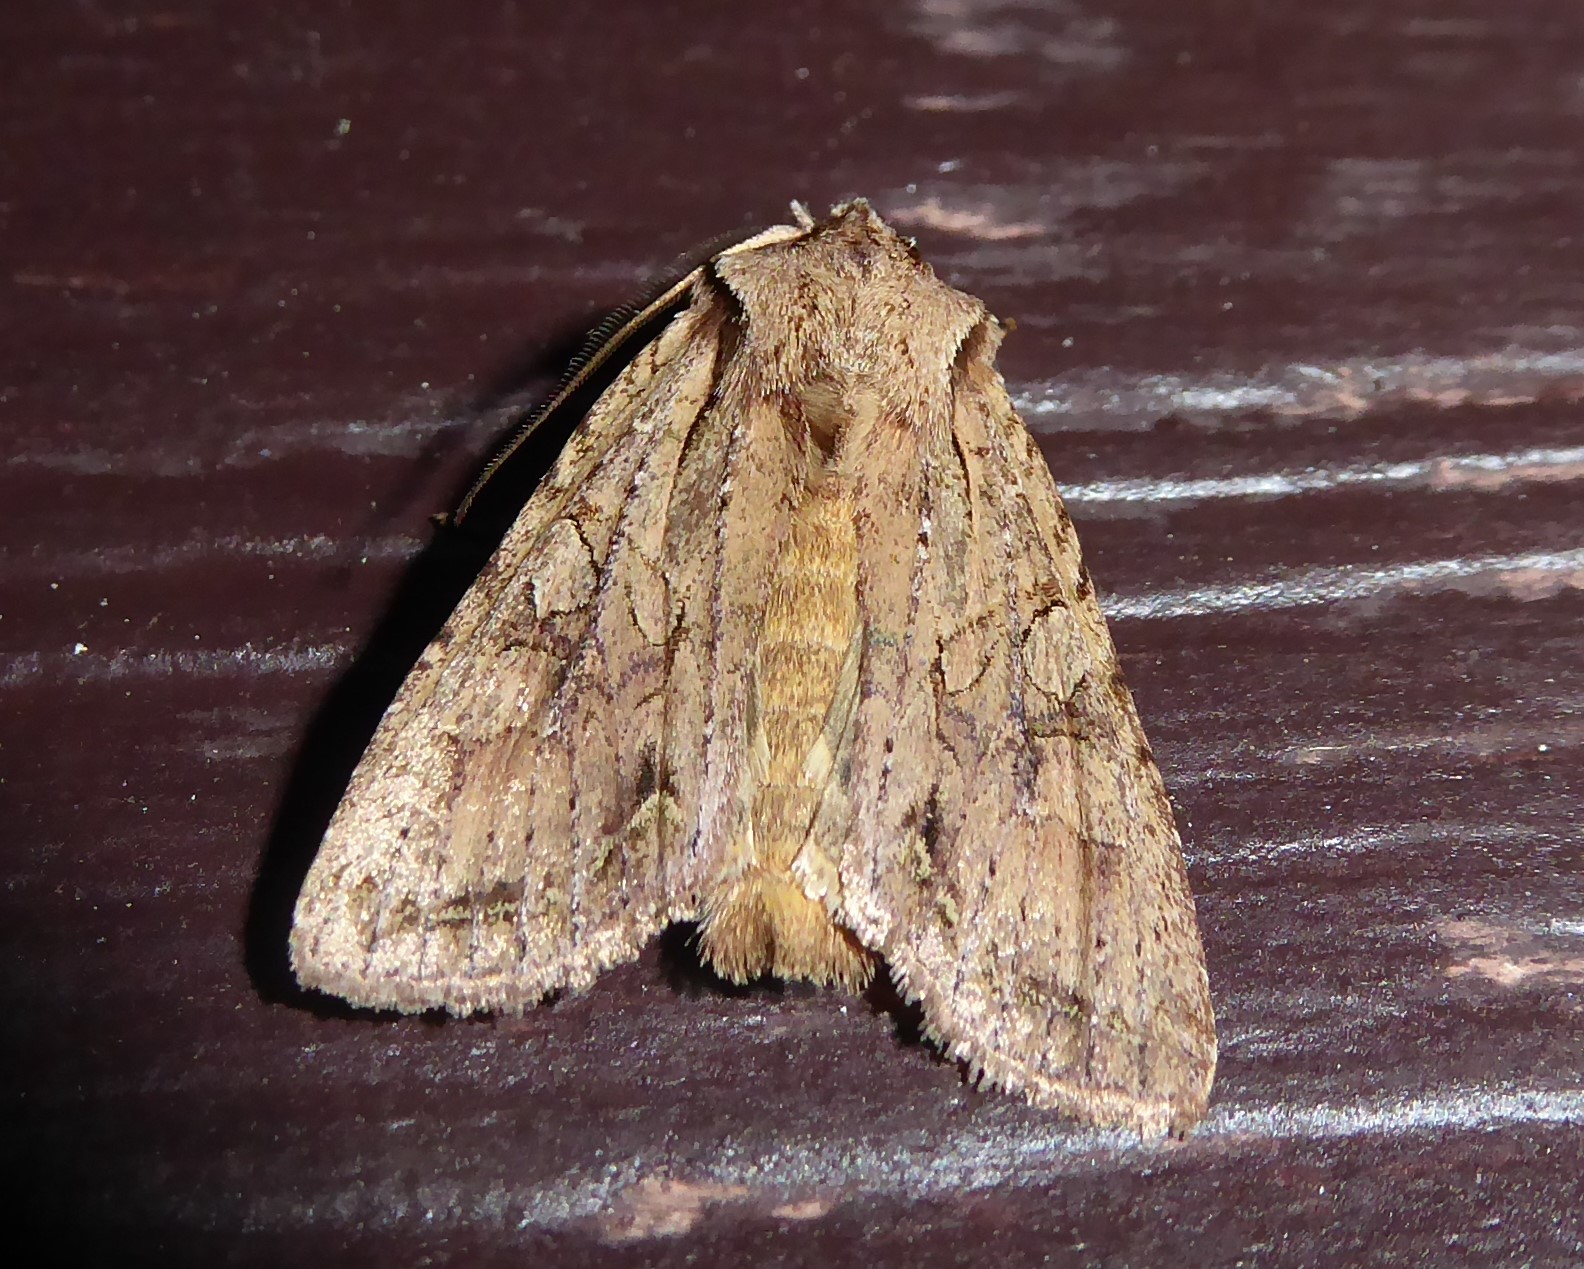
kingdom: Animalia
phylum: Arthropoda
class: Insecta
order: Lepidoptera
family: Noctuidae
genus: Ichneutica
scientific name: Ichneutica
